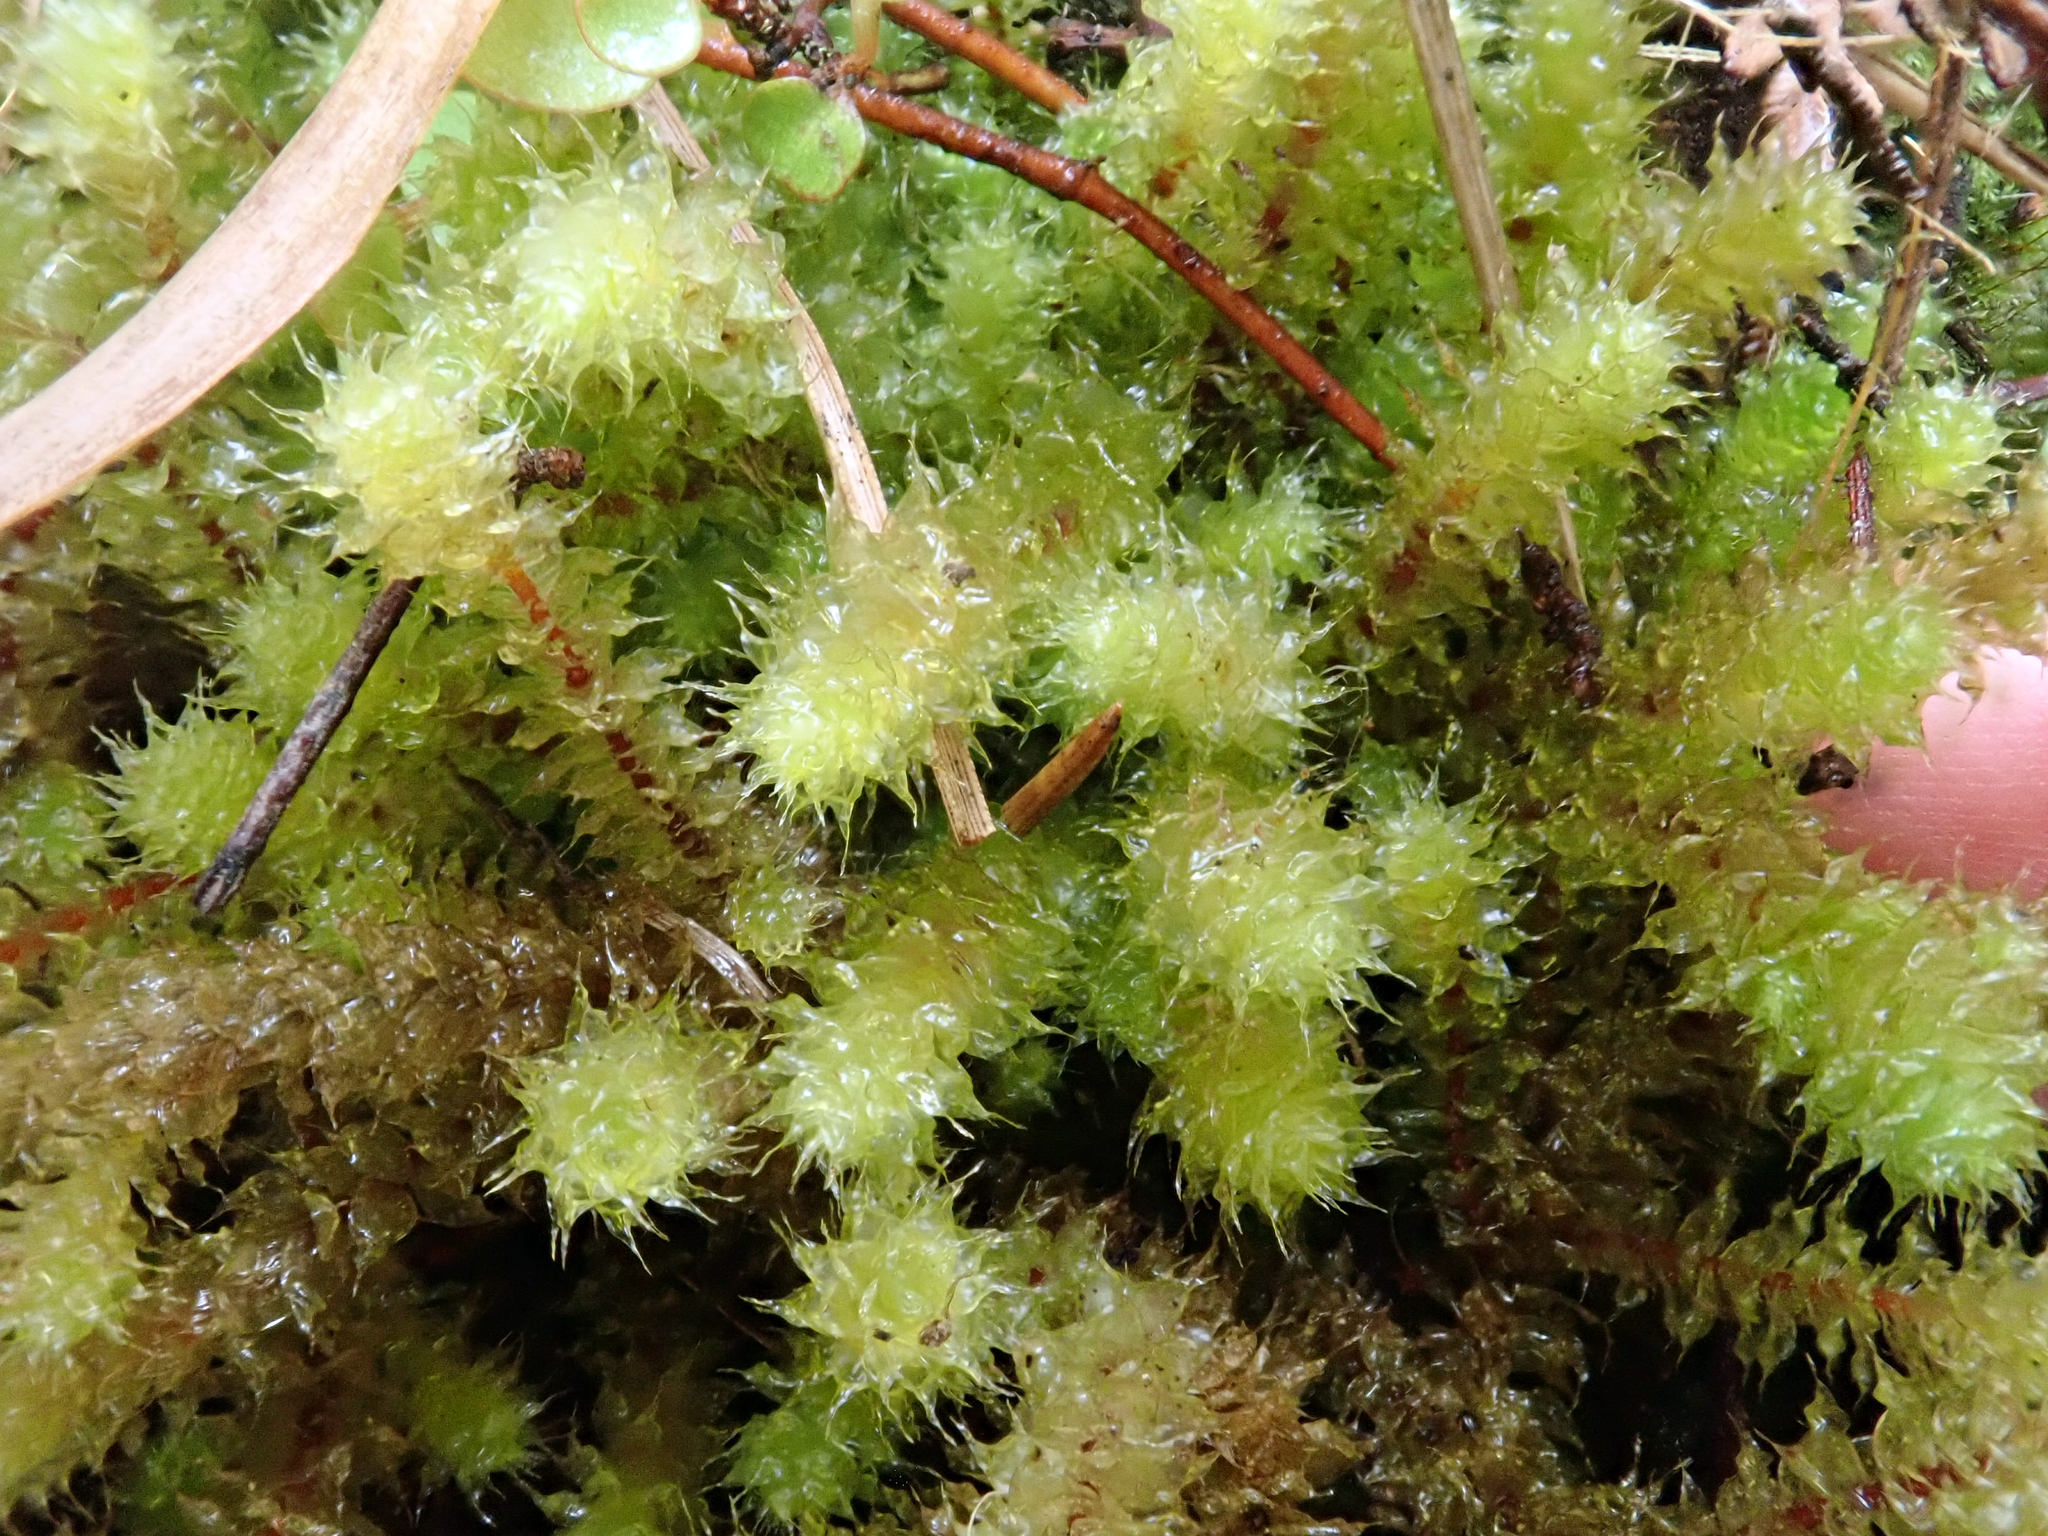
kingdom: Plantae
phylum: Bryophyta
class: Bryopsida
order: Ptychomniales
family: Ptychomniaceae
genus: Ptychomnion
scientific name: Ptychomnion aciculare
